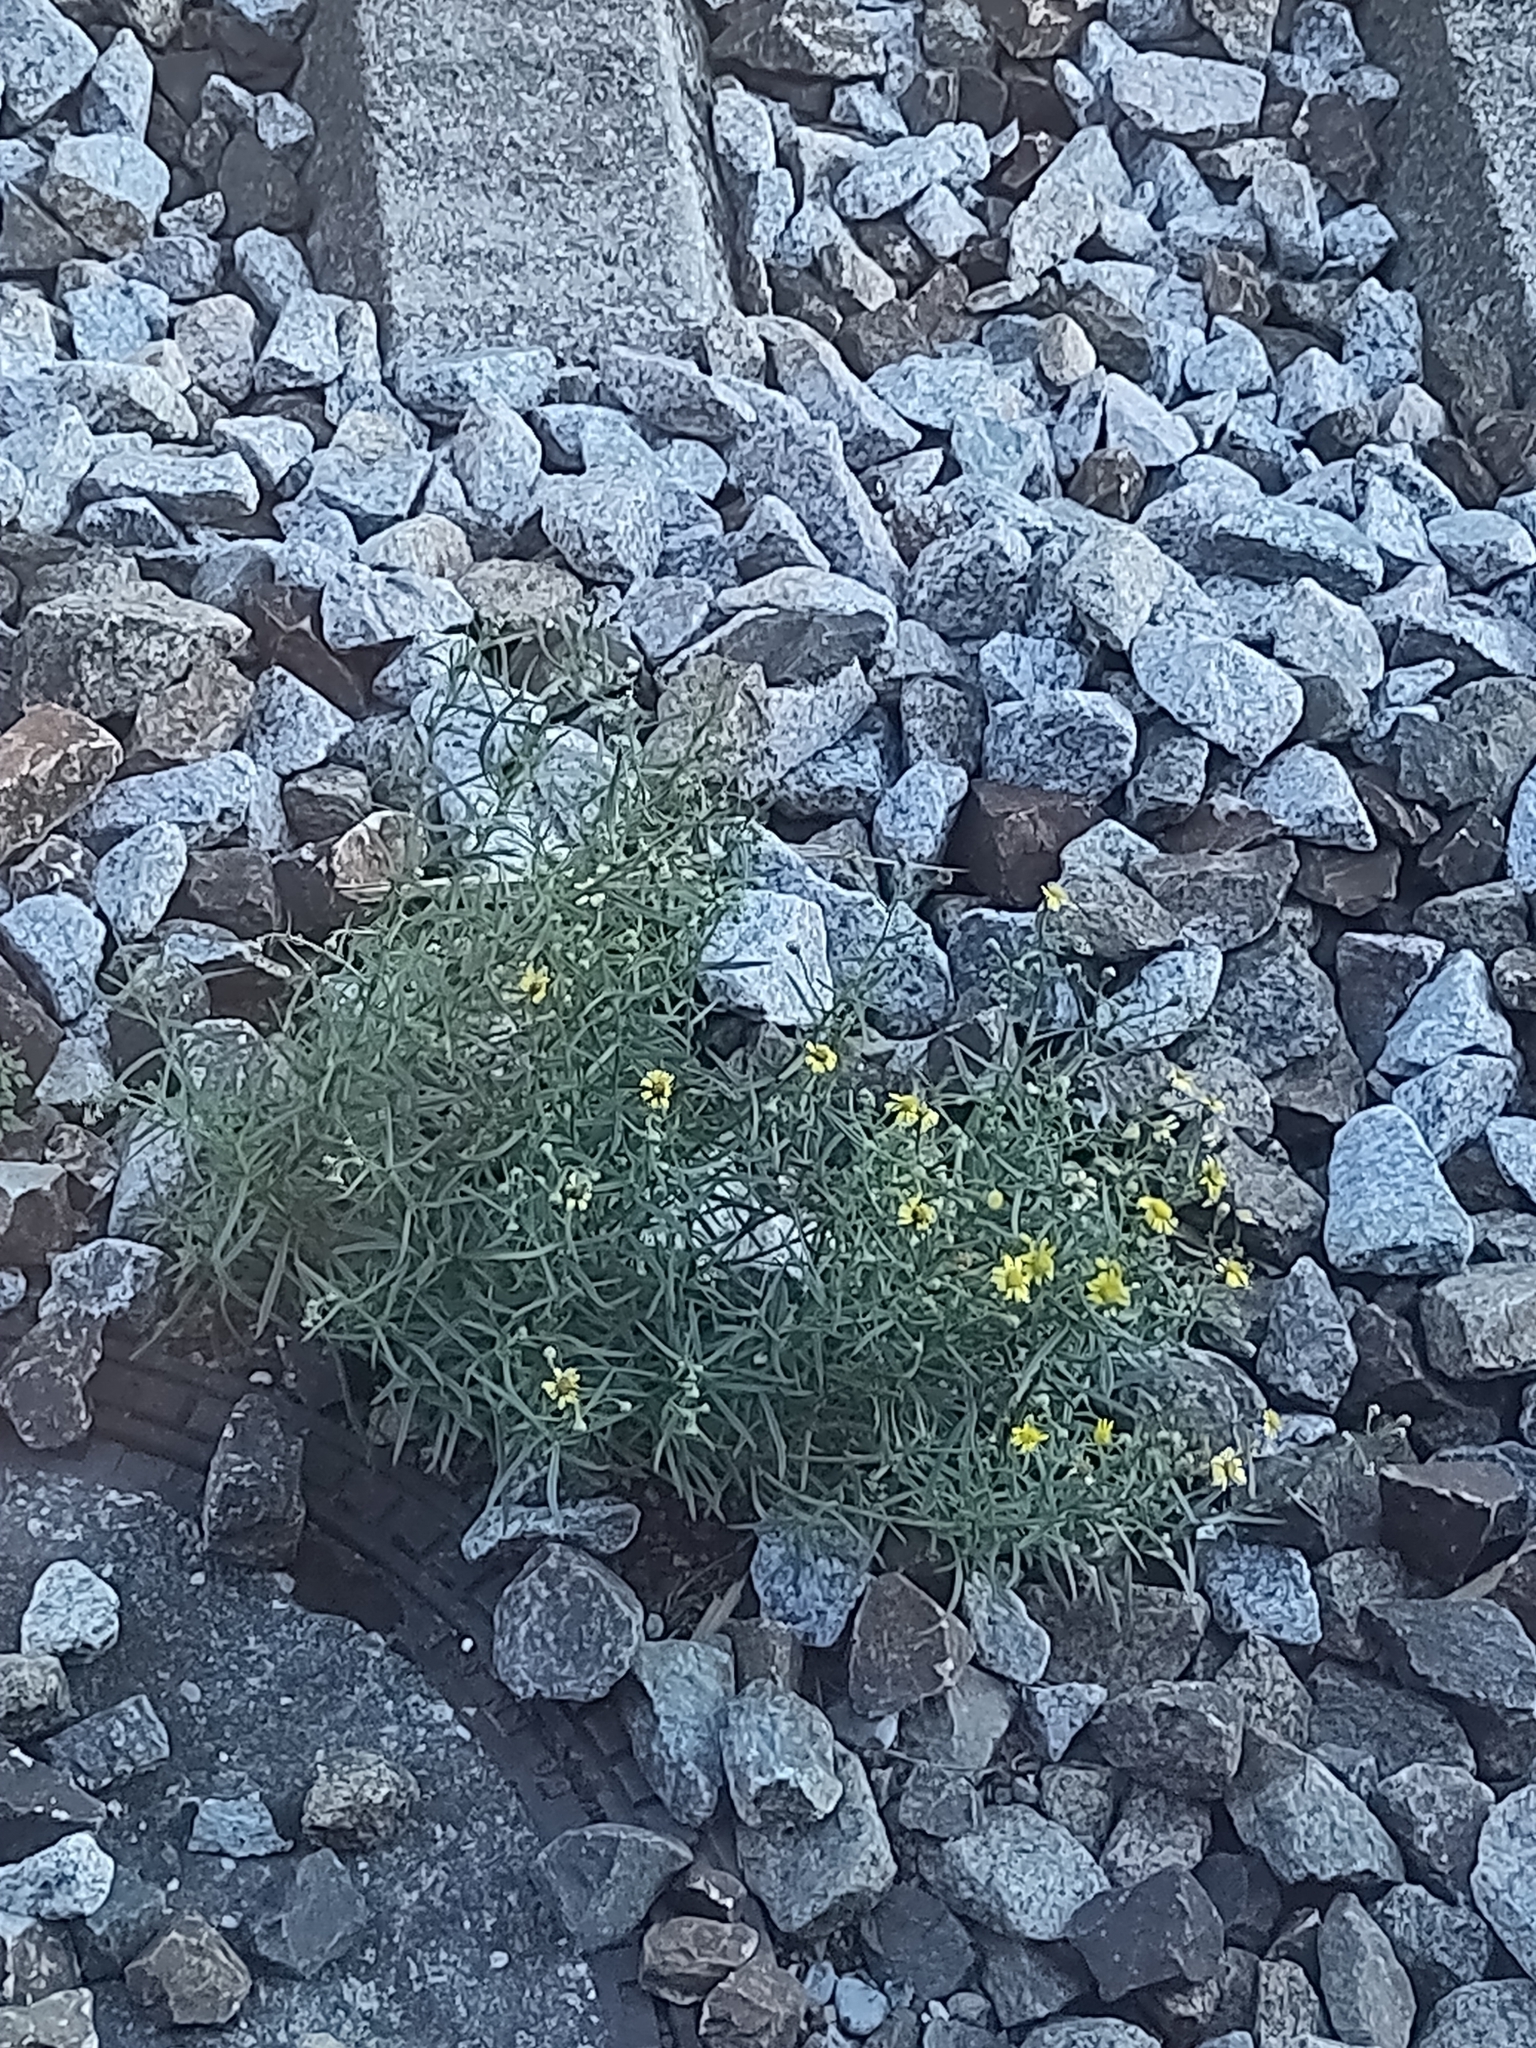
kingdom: Plantae
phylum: Tracheophyta
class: Magnoliopsida
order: Asterales
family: Asteraceae
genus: Senecio
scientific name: Senecio inaequidens
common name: Narrow-leaved ragwort
